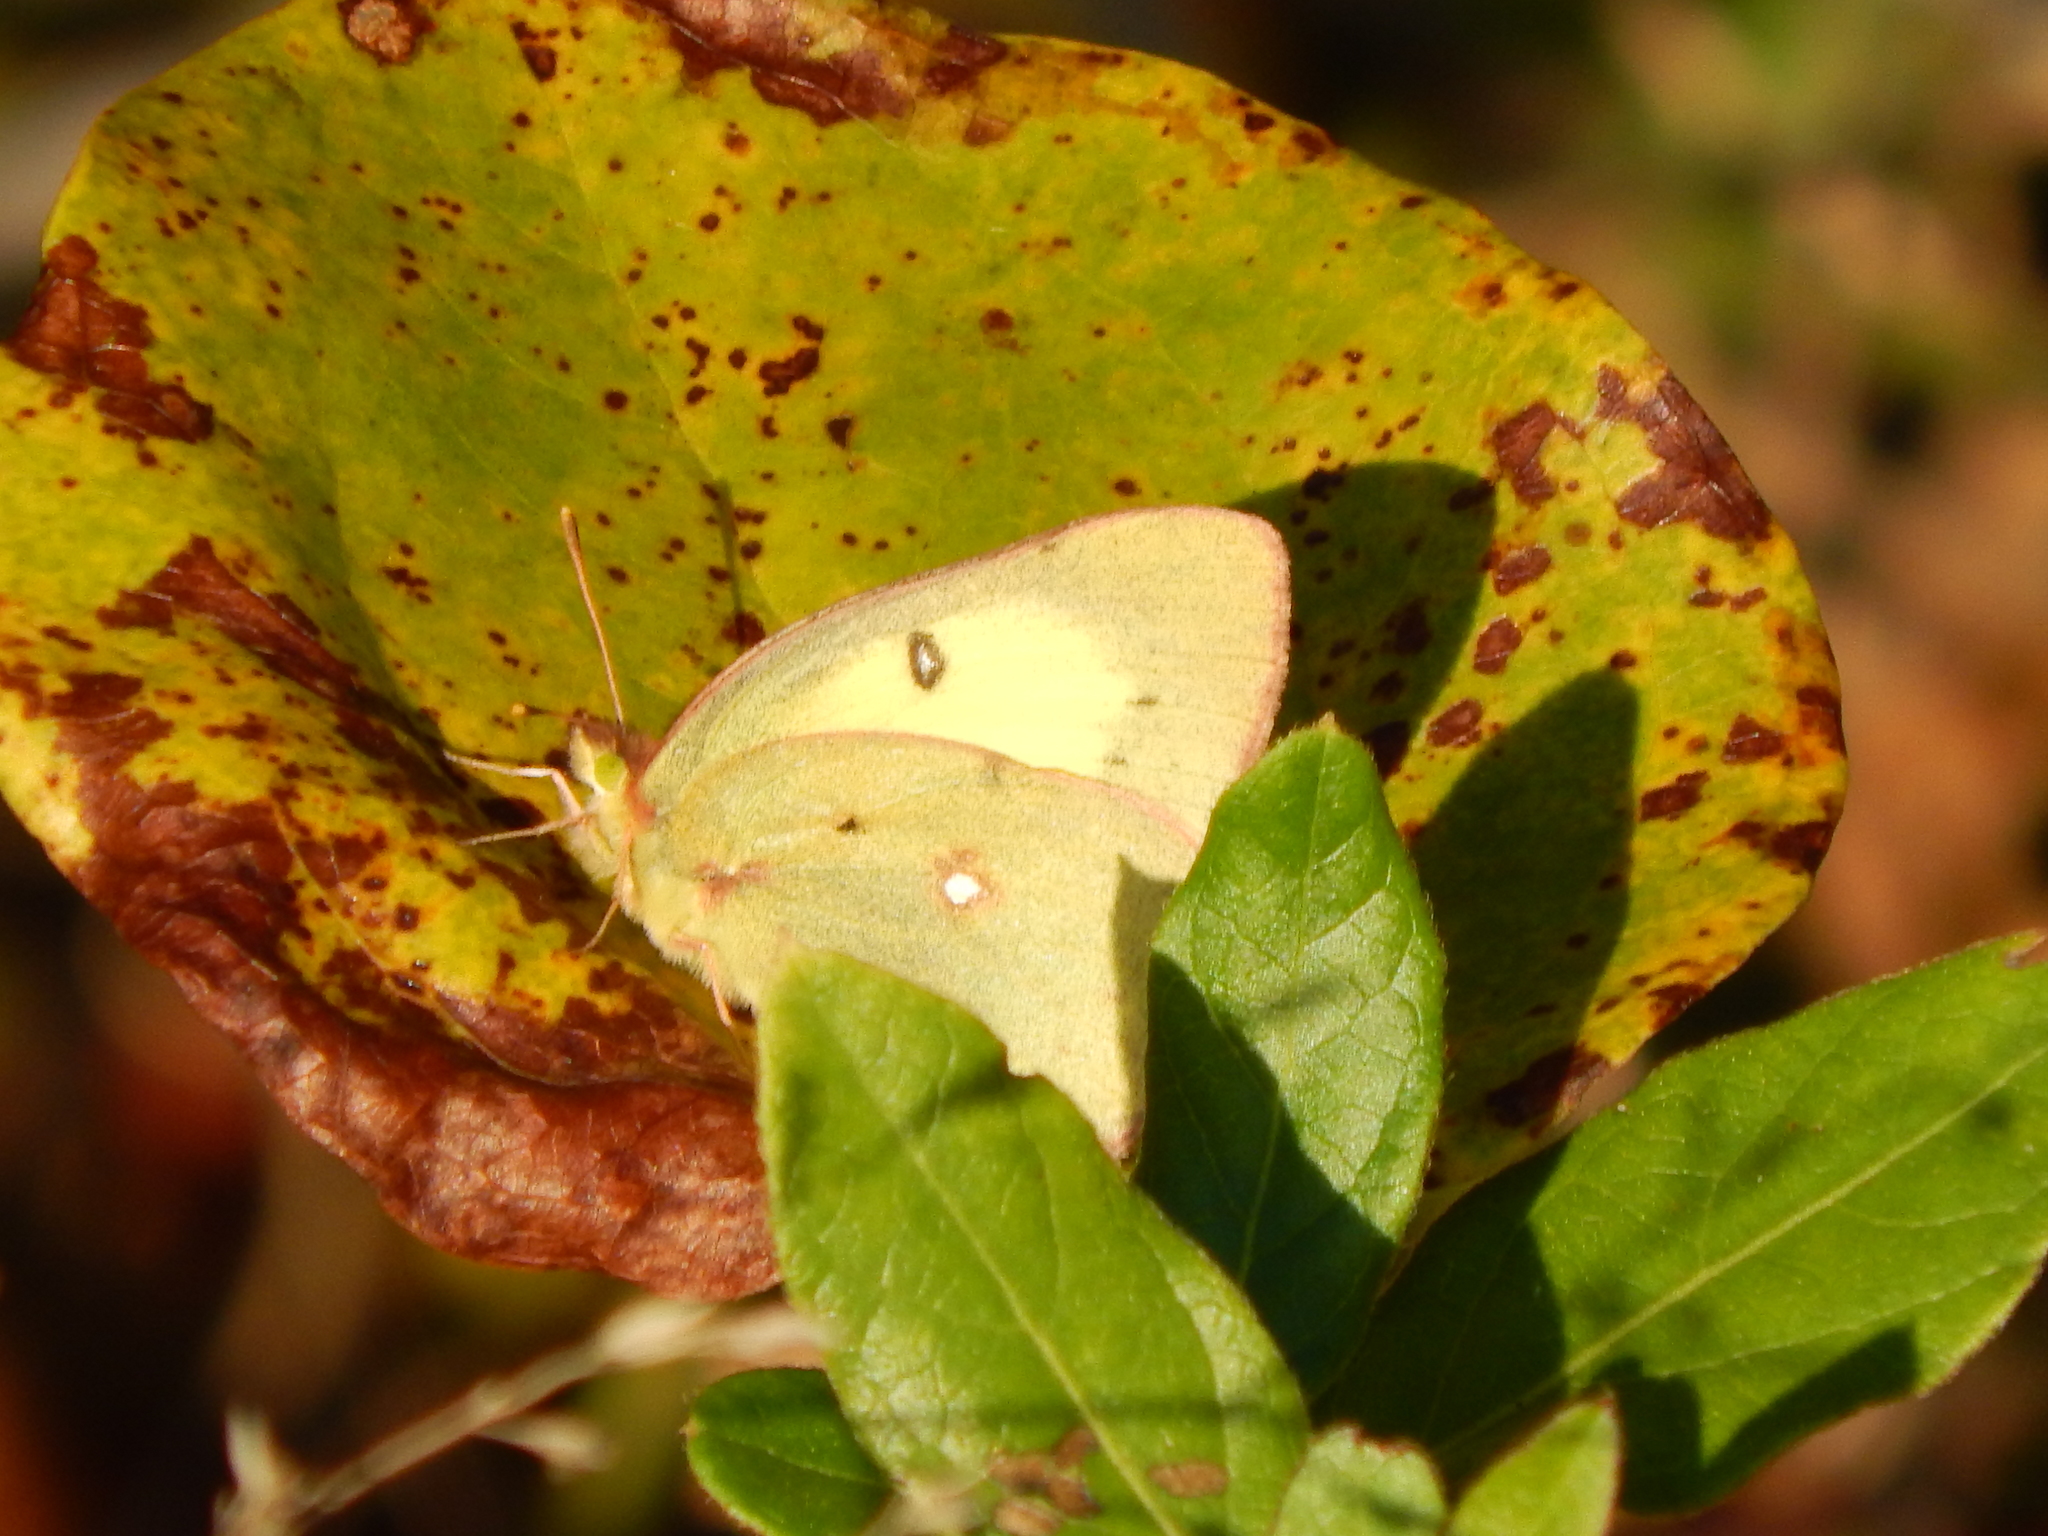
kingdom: Animalia
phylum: Arthropoda
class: Insecta
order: Lepidoptera
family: Pieridae
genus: Colias
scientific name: Colias philodice
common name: Clouded sulphur
